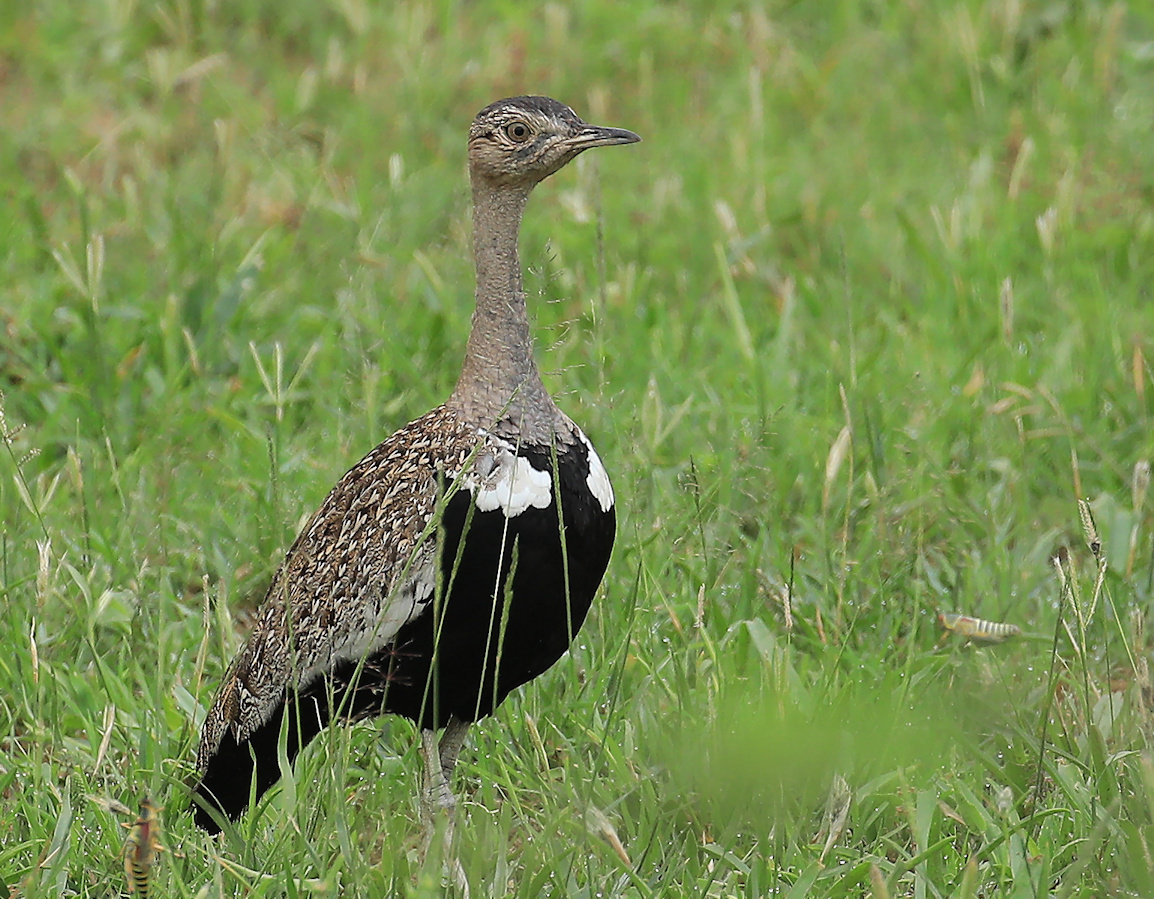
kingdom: Animalia
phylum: Chordata
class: Aves
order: Otidiformes
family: Otididae
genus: Lophotis
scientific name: Lophotis ruficrista
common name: Red-crested korhaan
